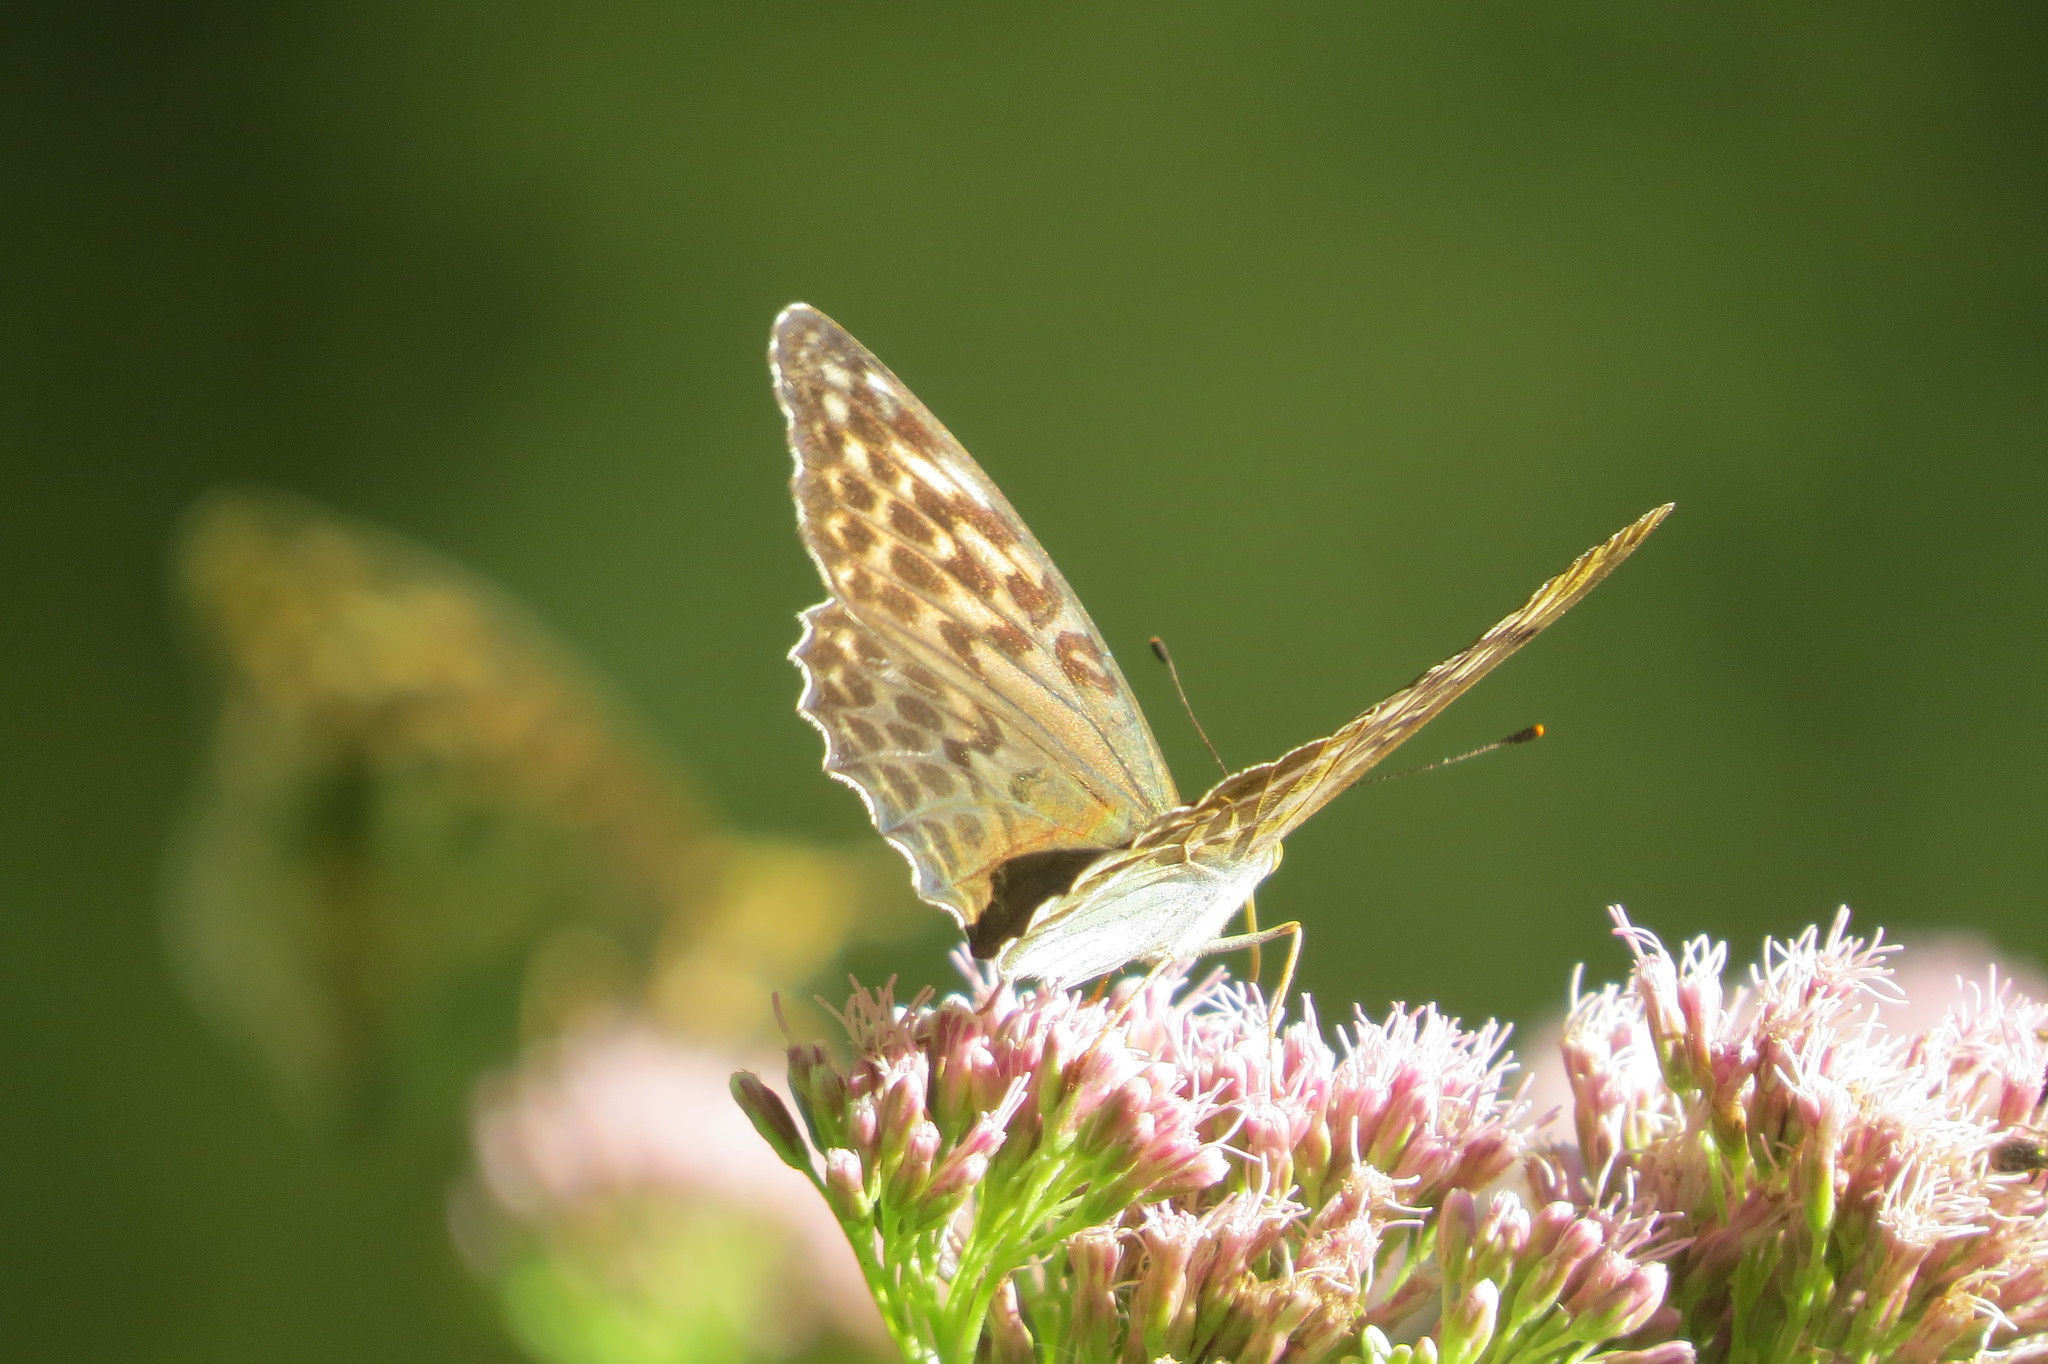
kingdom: Animalia
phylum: Arthropoda
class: Insecta
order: Lepidoptera
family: Nymphalidae
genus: Argynnis
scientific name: Argynnis paphia
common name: Silver-washed fritillary
